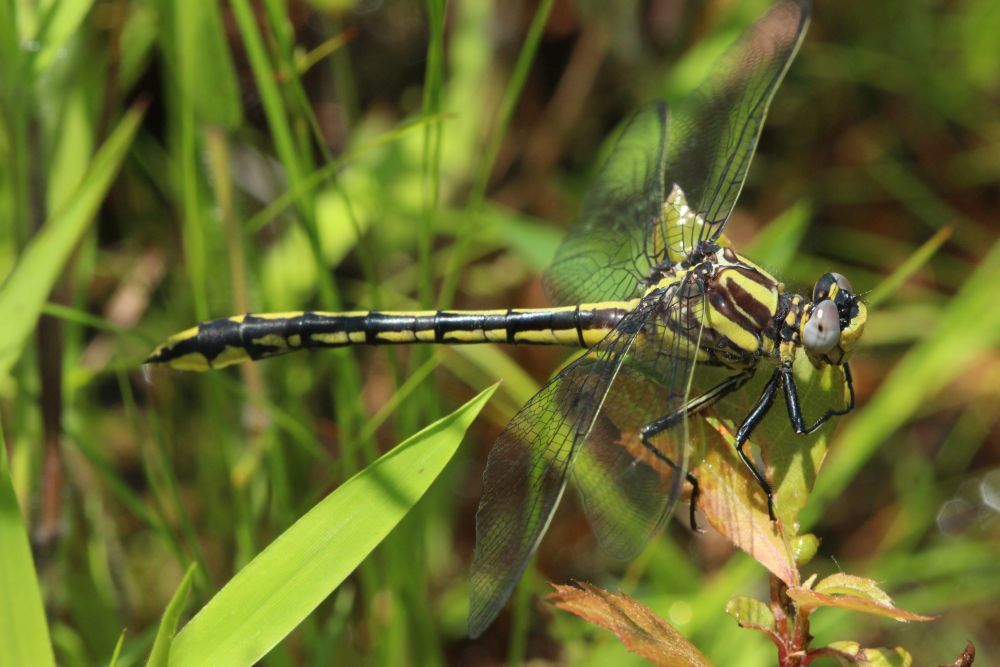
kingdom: Animalia
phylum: Arthropoda
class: Insecta
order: Odonata
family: Gomphidae
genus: Phanogomphus
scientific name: Phanogomphus graslinellus
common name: Pronghorn clubtail
